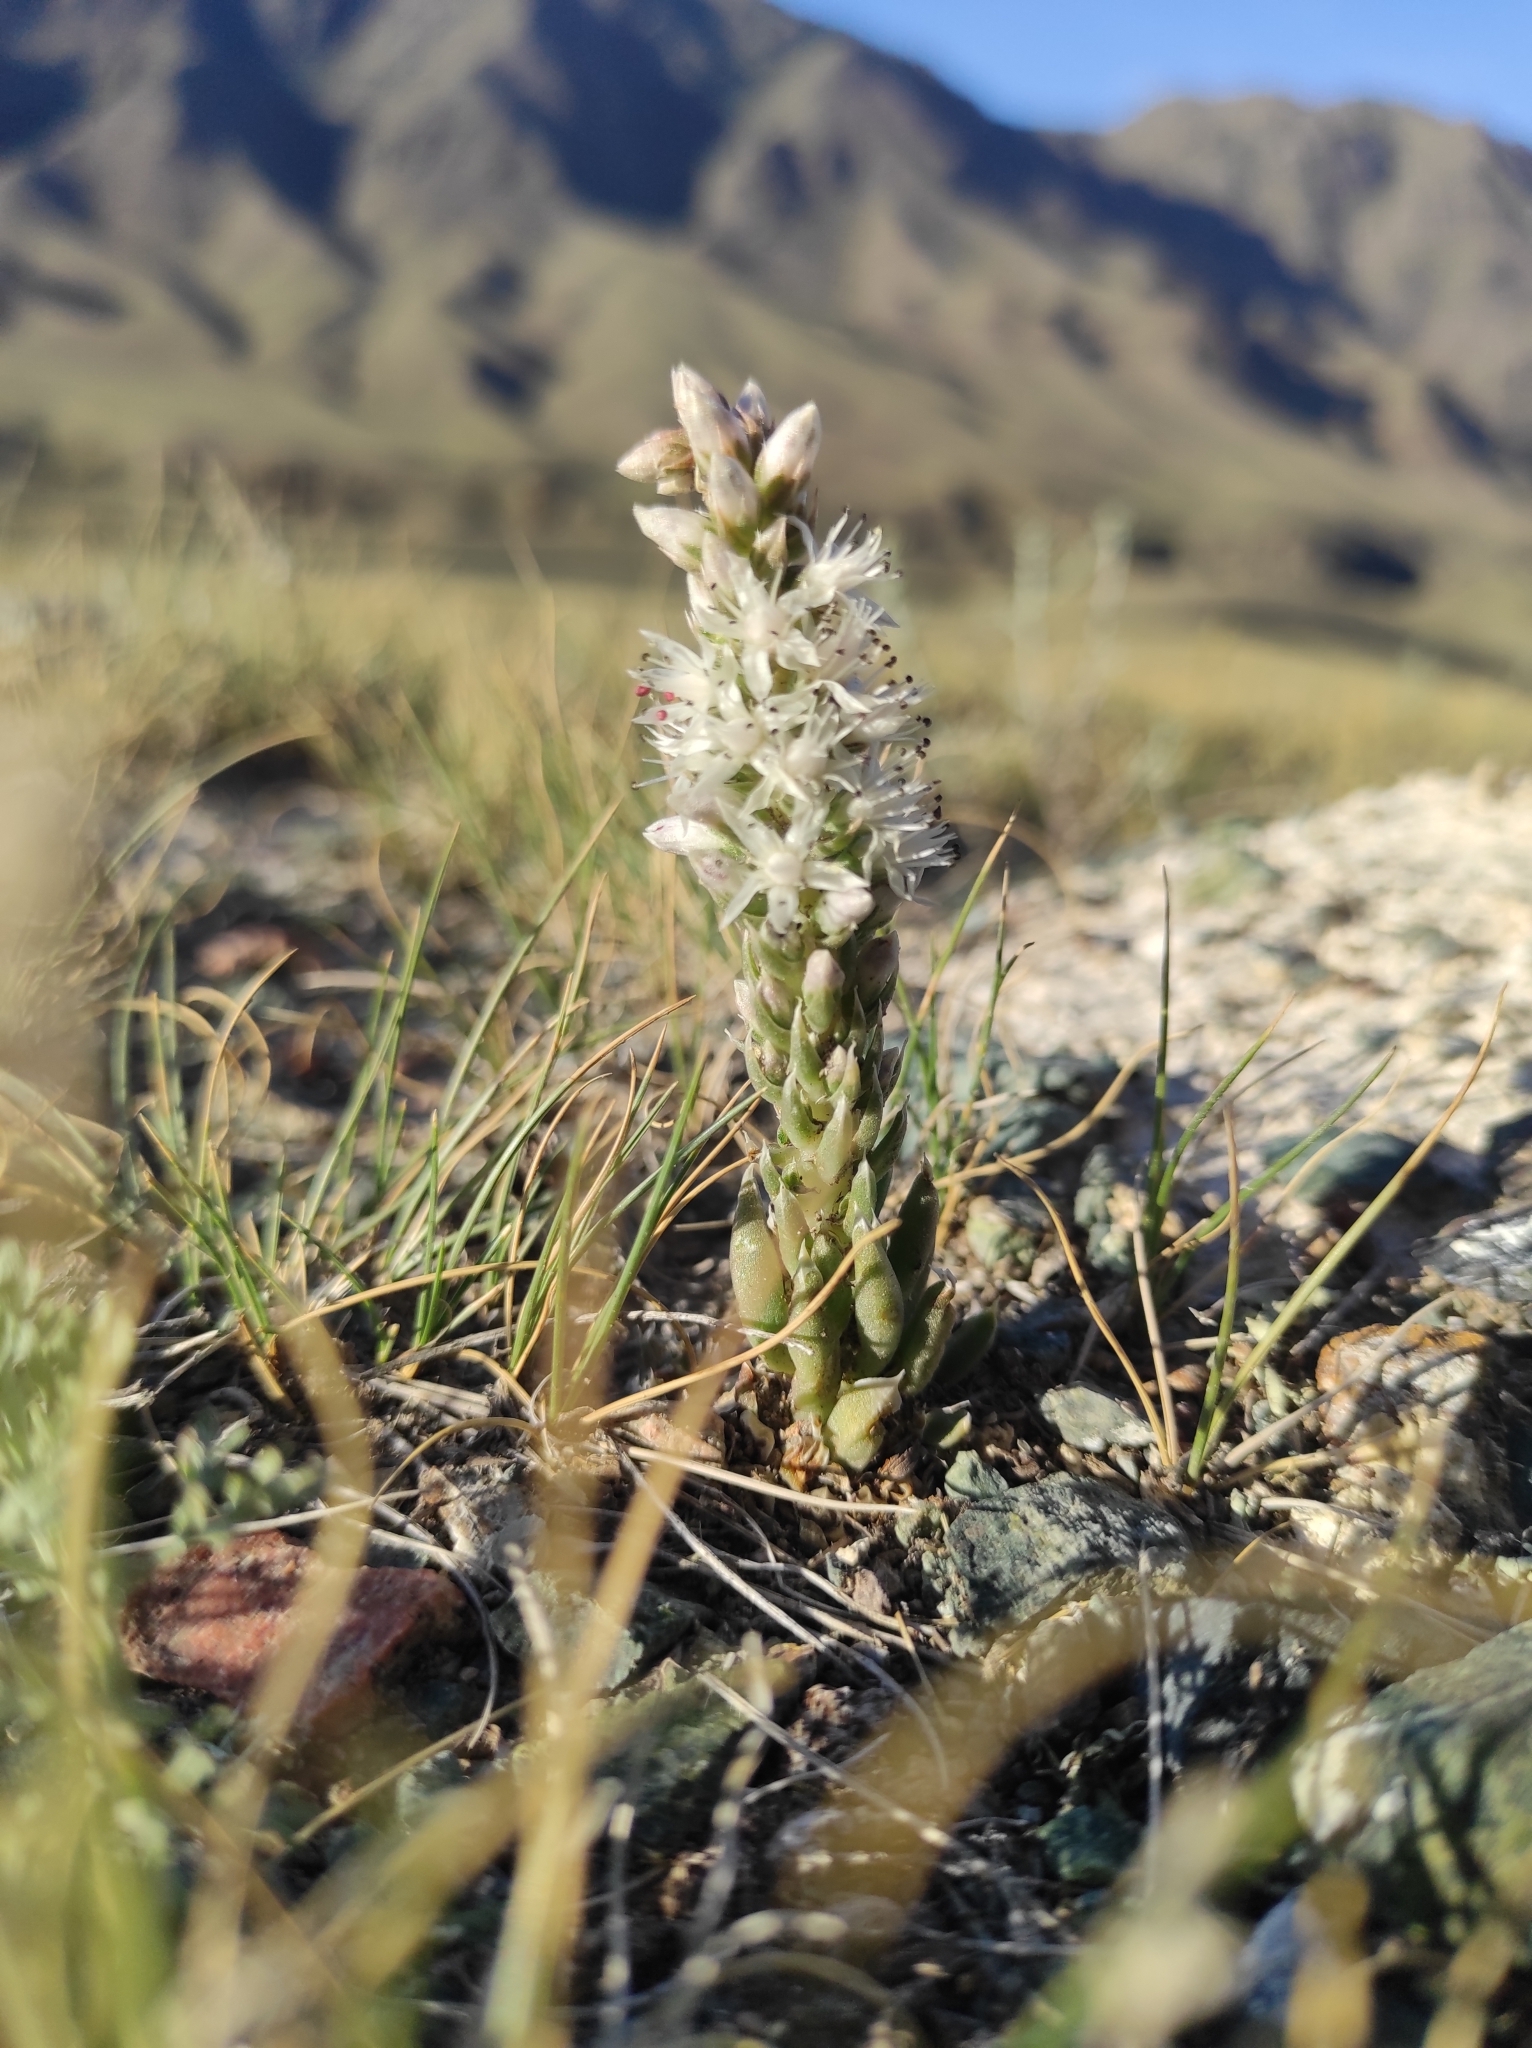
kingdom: Plantae
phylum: Tracheophyta
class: Magnoliopsida
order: Saxifragales
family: Crassulaceae
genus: Orostachys
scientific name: Orostachys thyrsiflora
